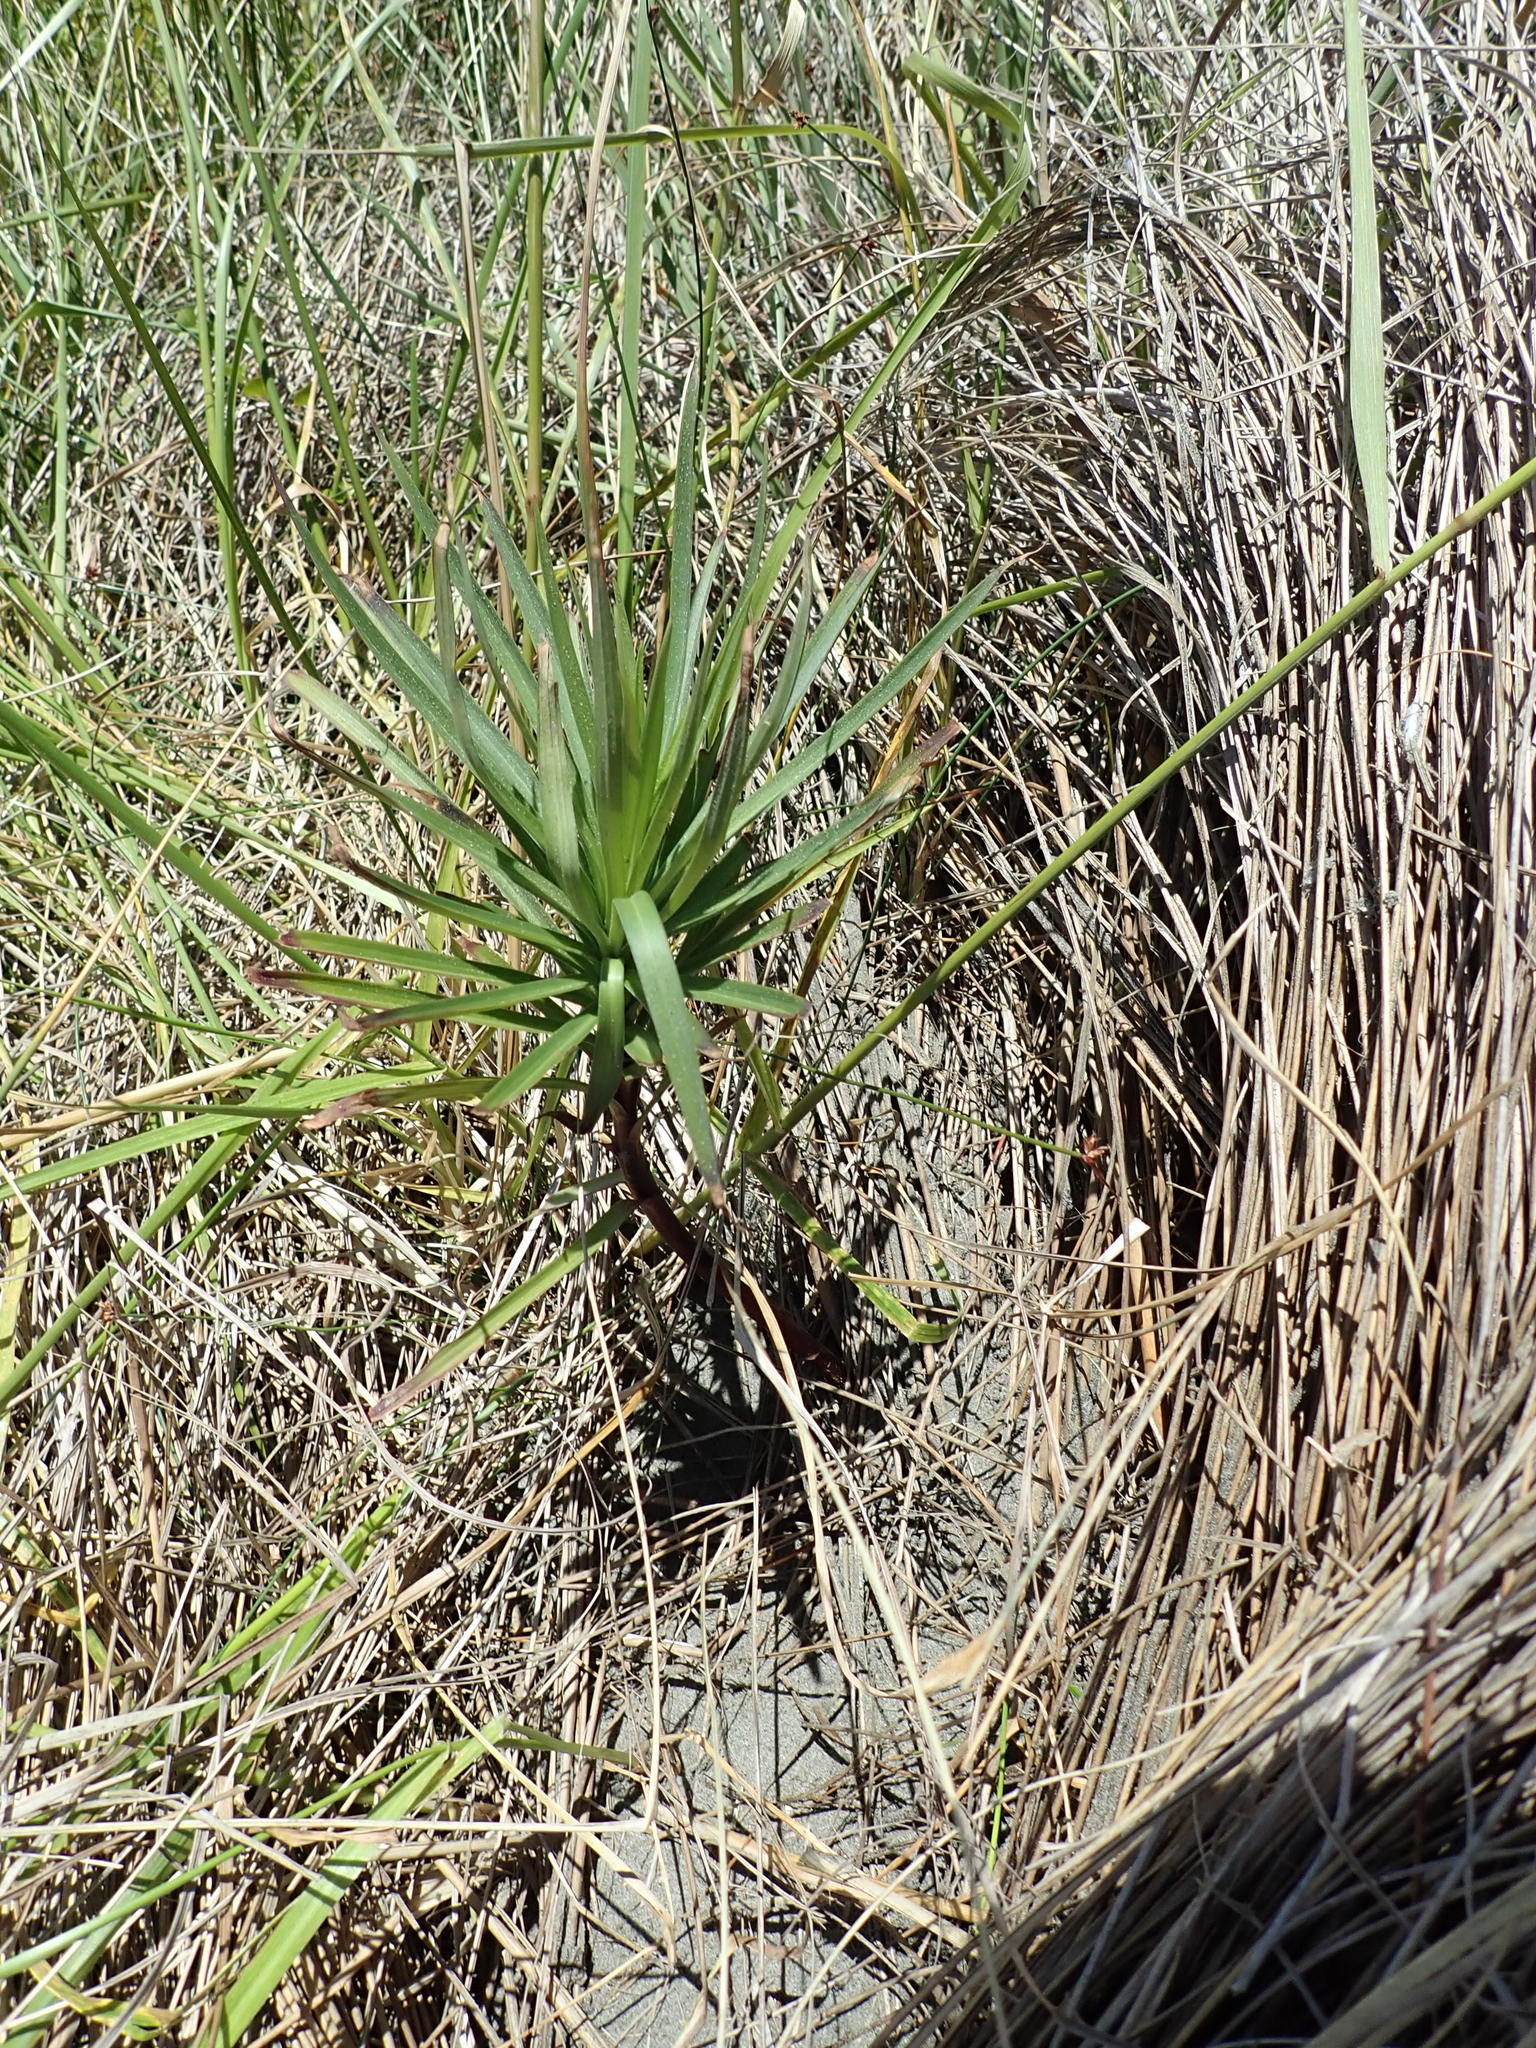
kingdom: Plantae
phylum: Tracheophyta
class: Liliopsida
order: Liliales
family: Liliaceae
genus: Lilium
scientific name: Lilium formosanum
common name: Formosa lily
